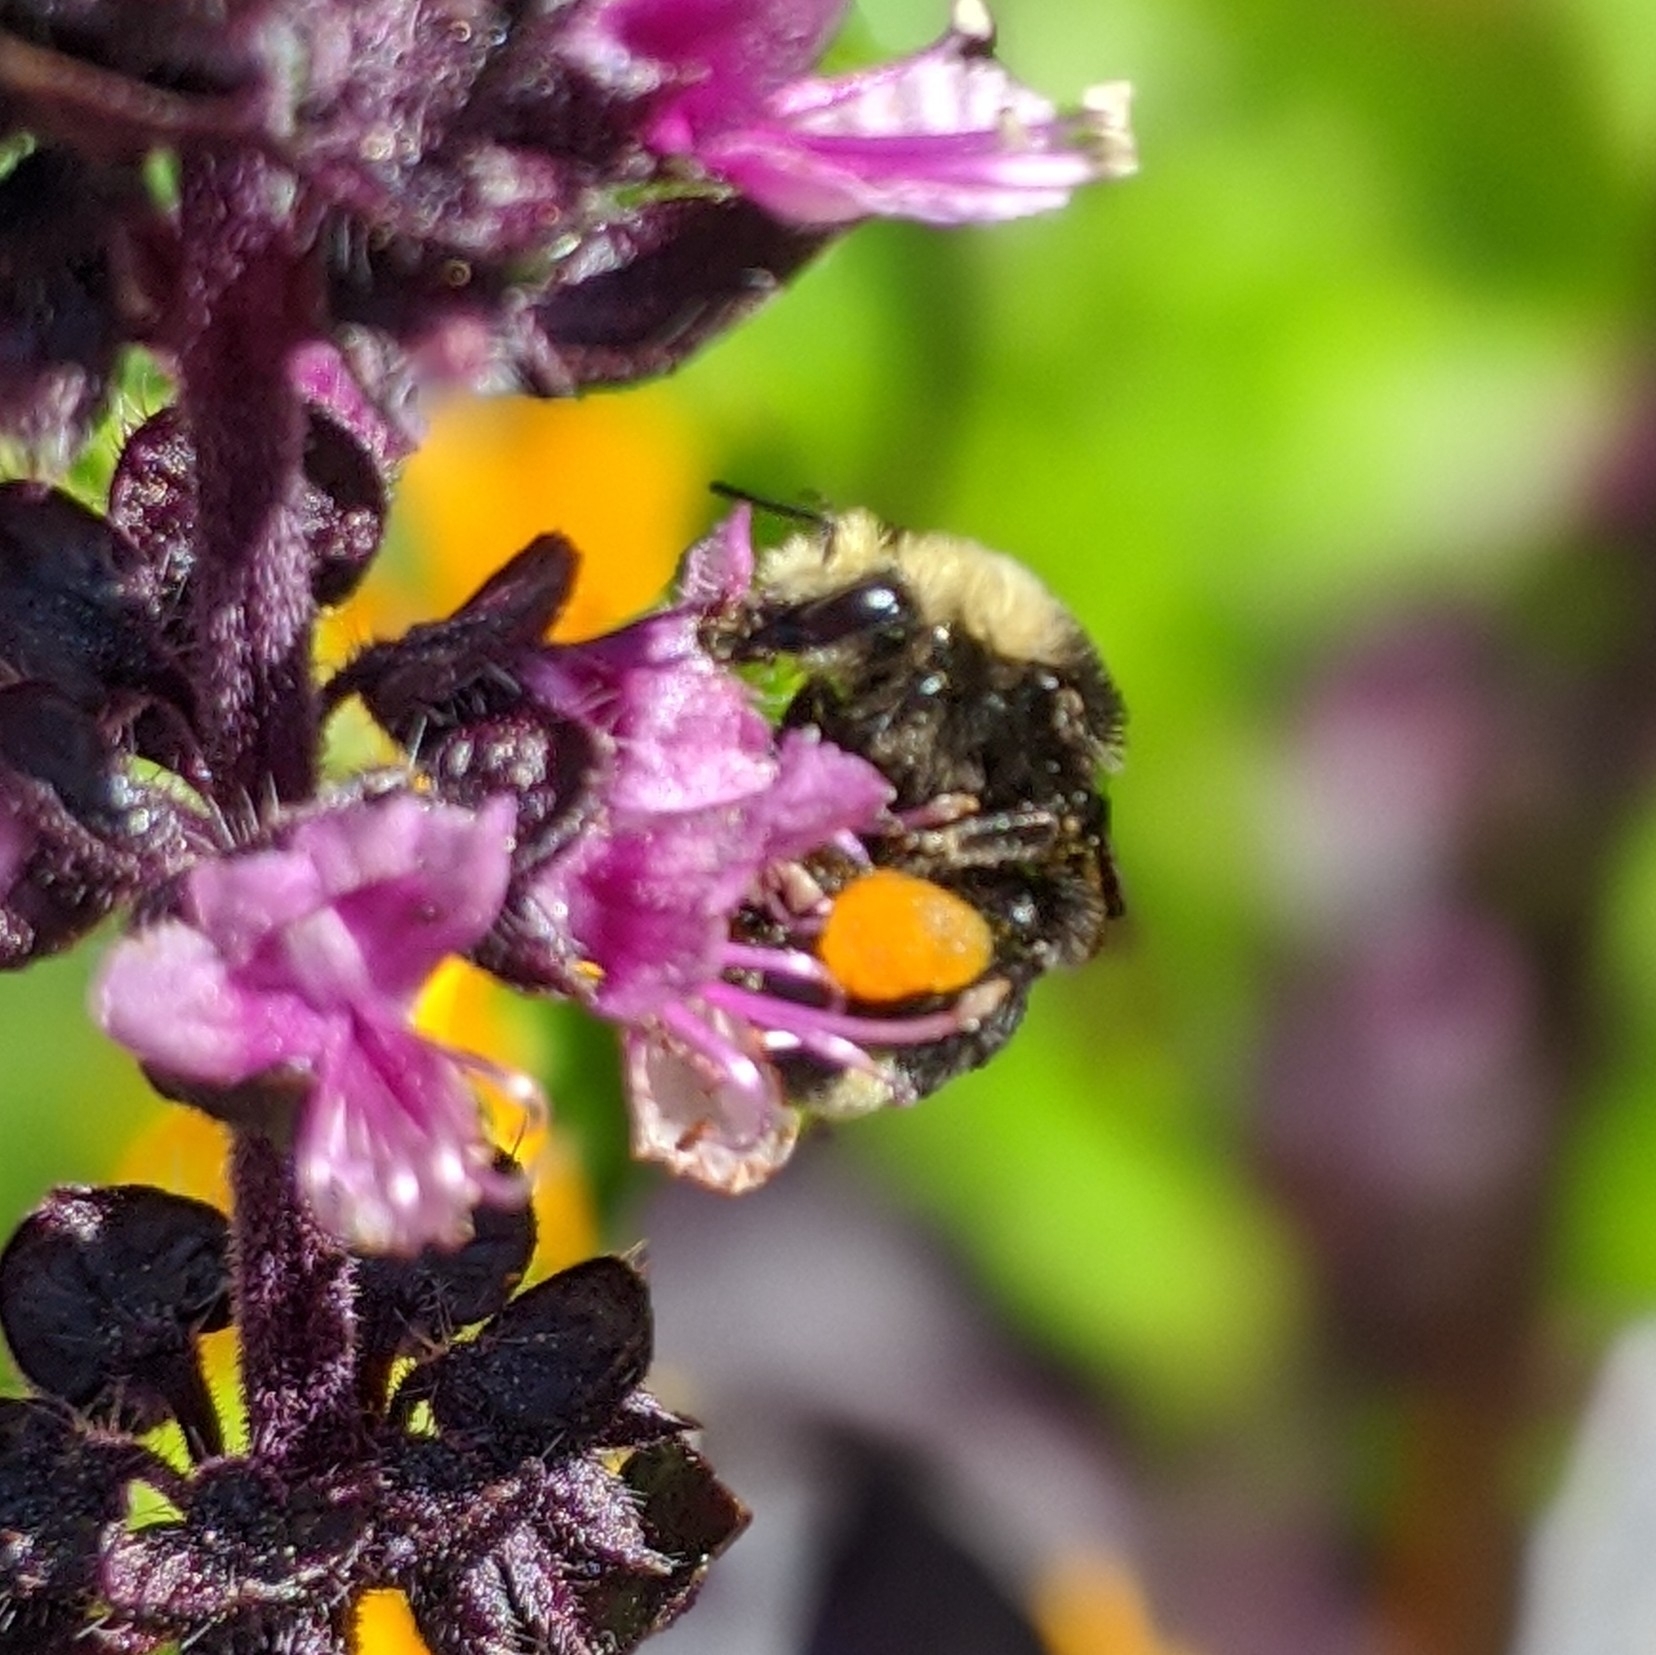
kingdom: Animalia
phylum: Arthropoda
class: Insecta
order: Hymenoptera
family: Apidae
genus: Bombus
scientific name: Bombus vosnesenskii
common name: Vosnesensky bumble bee
